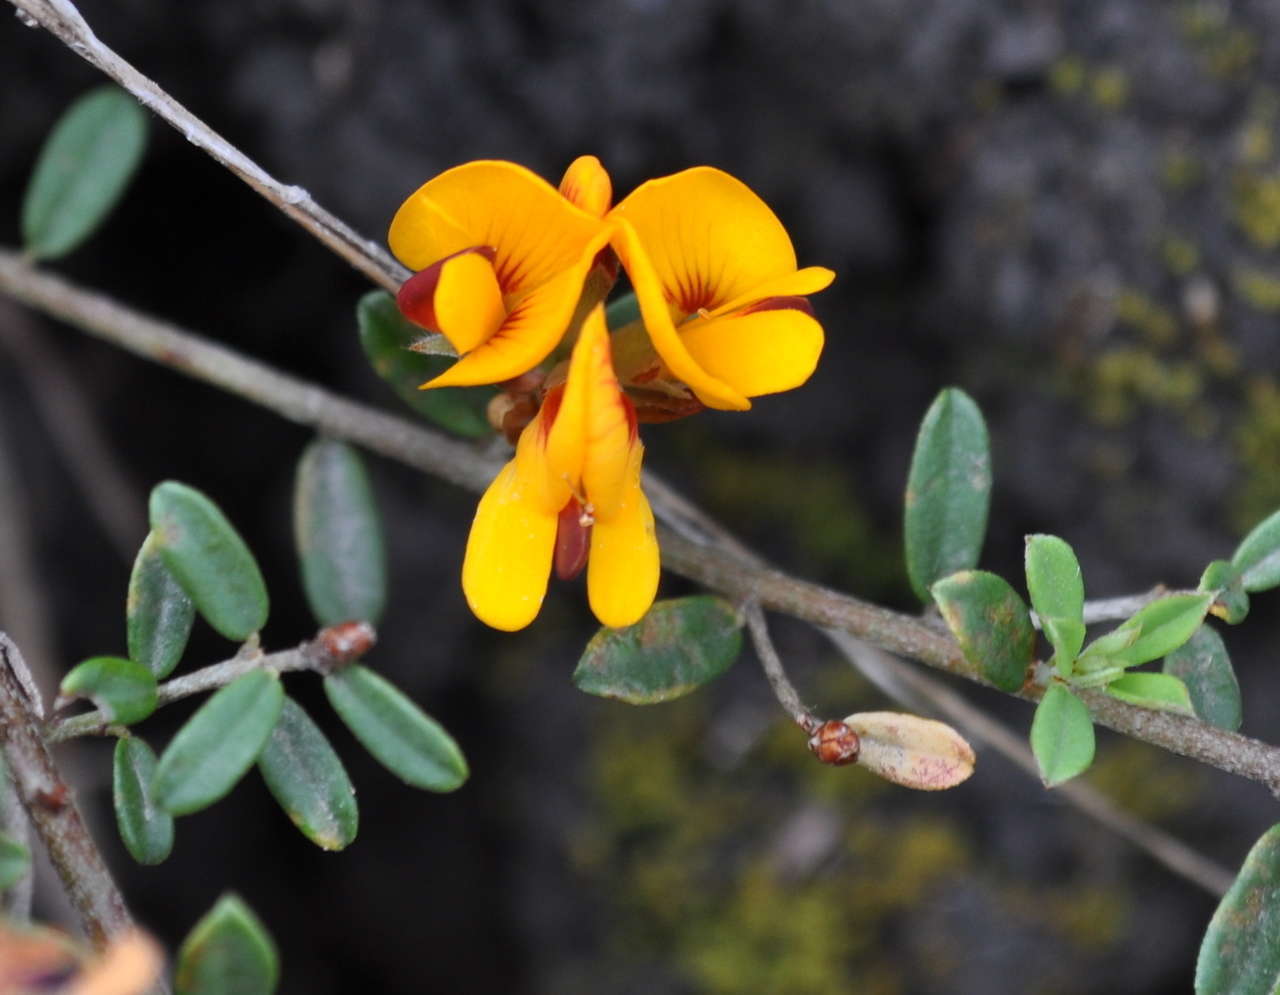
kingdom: Plantae
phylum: Tracheophyta
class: Magnoliopsida
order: Fabales
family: Fabaceae
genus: Pultenaea
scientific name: Pultenaea stricta
